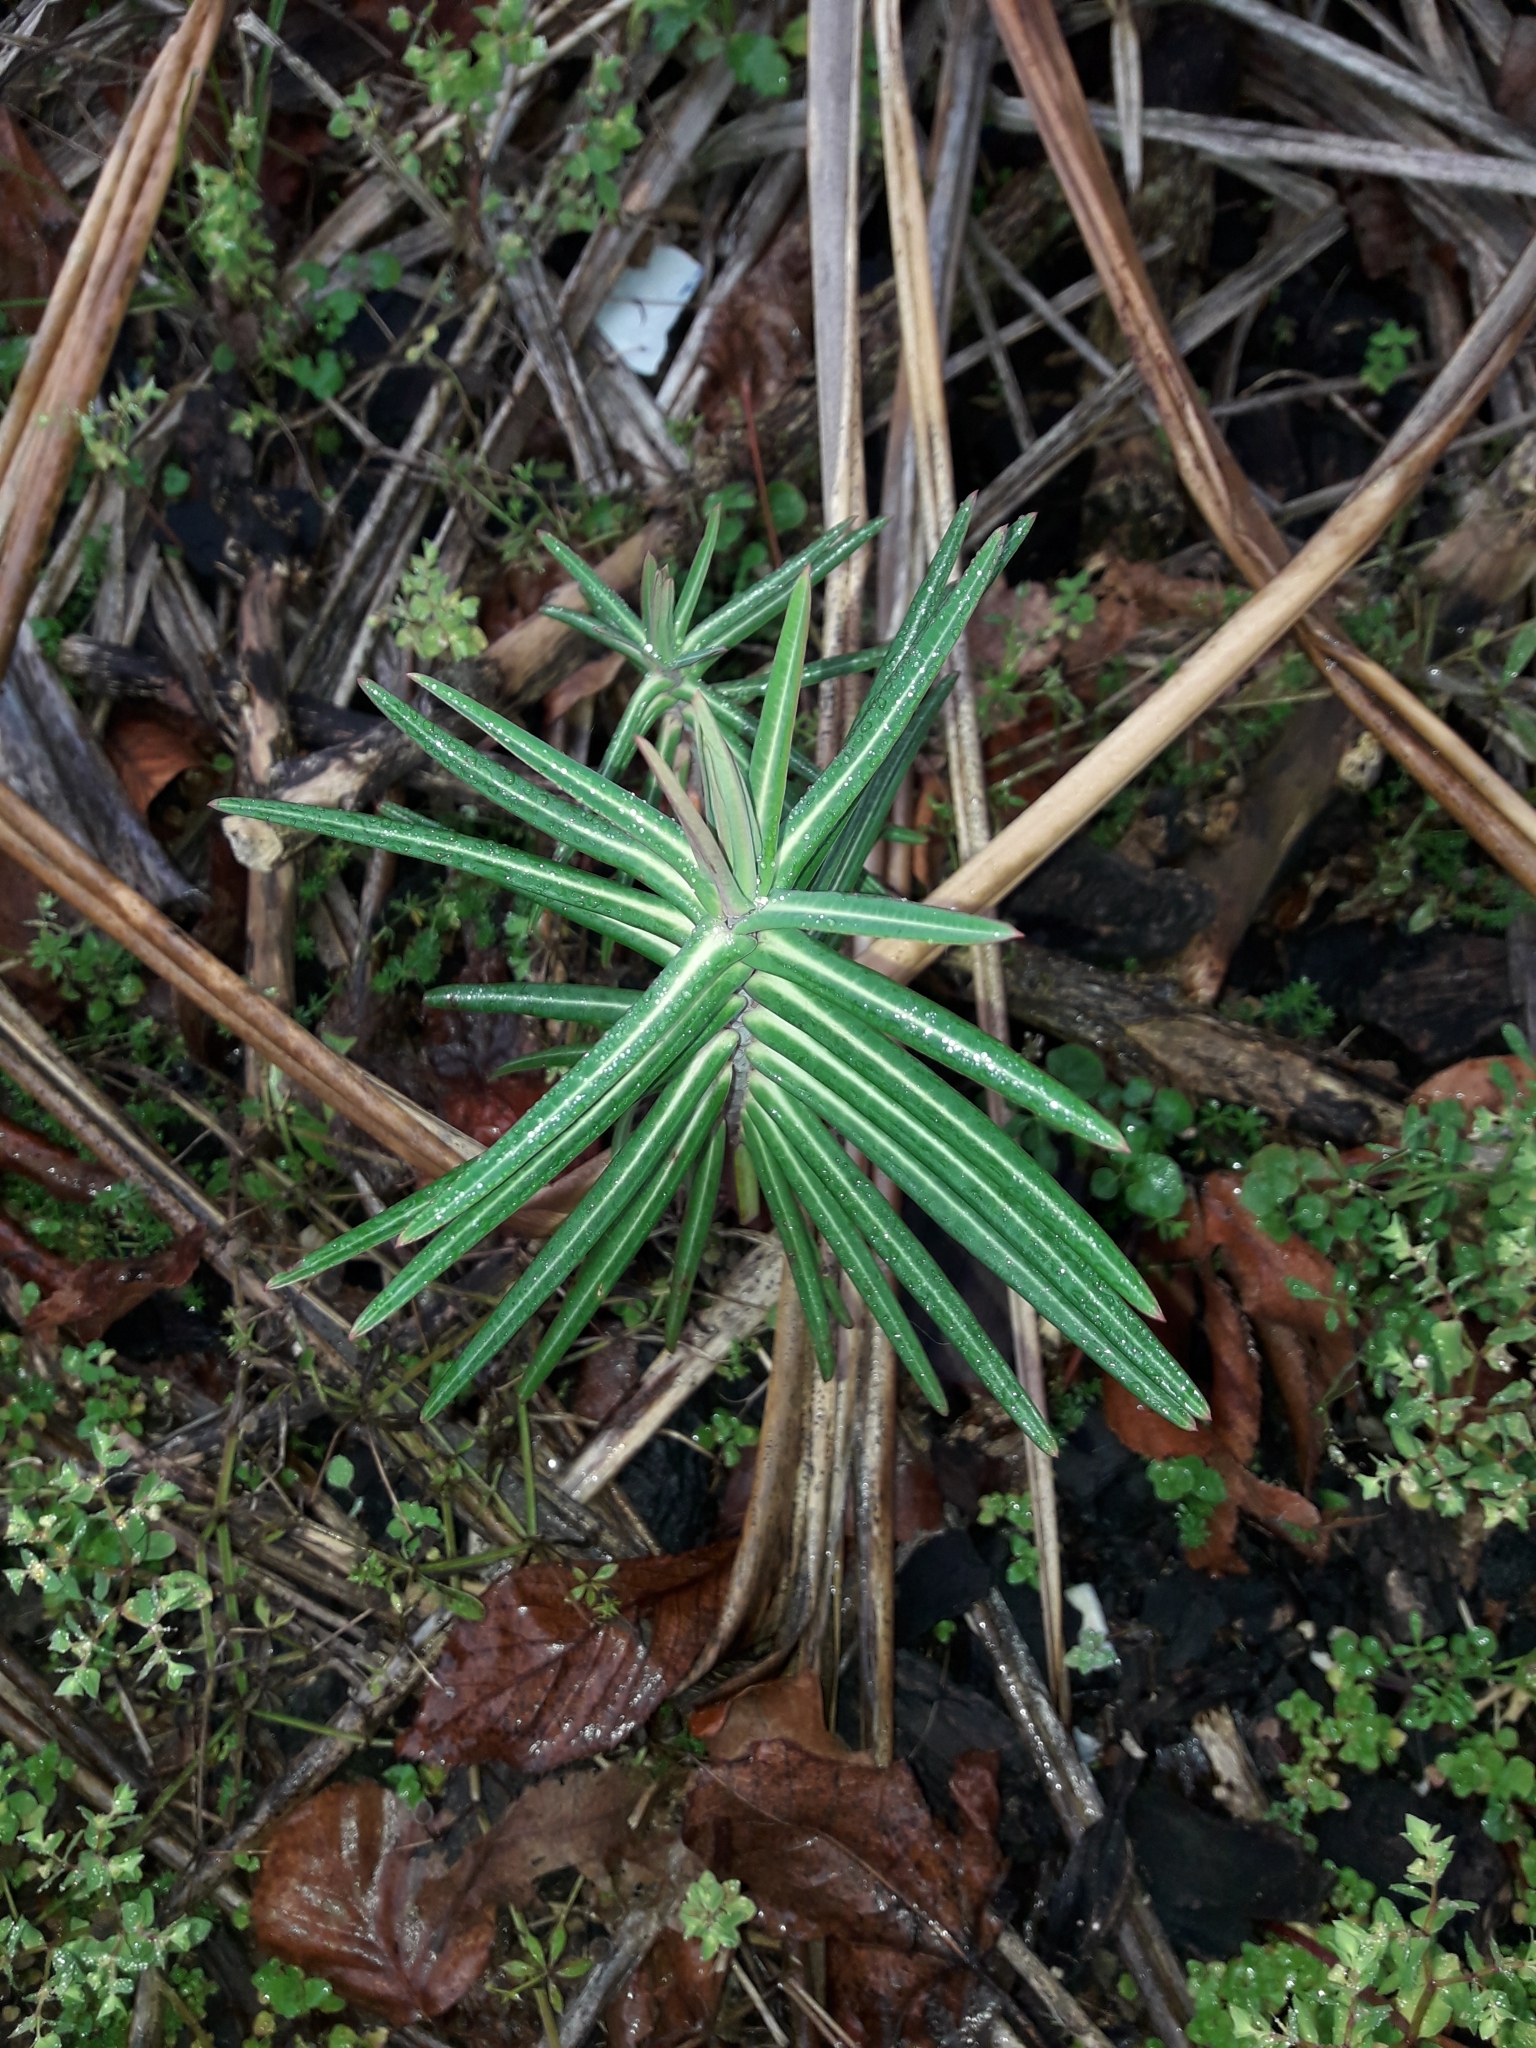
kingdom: Plantae
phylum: Tracheophyta
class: Magnoliopsida
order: Malpighiales
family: Euphorbiaceae
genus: Euphorbia
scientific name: Euphorbia lathyris
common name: Caper spurge
